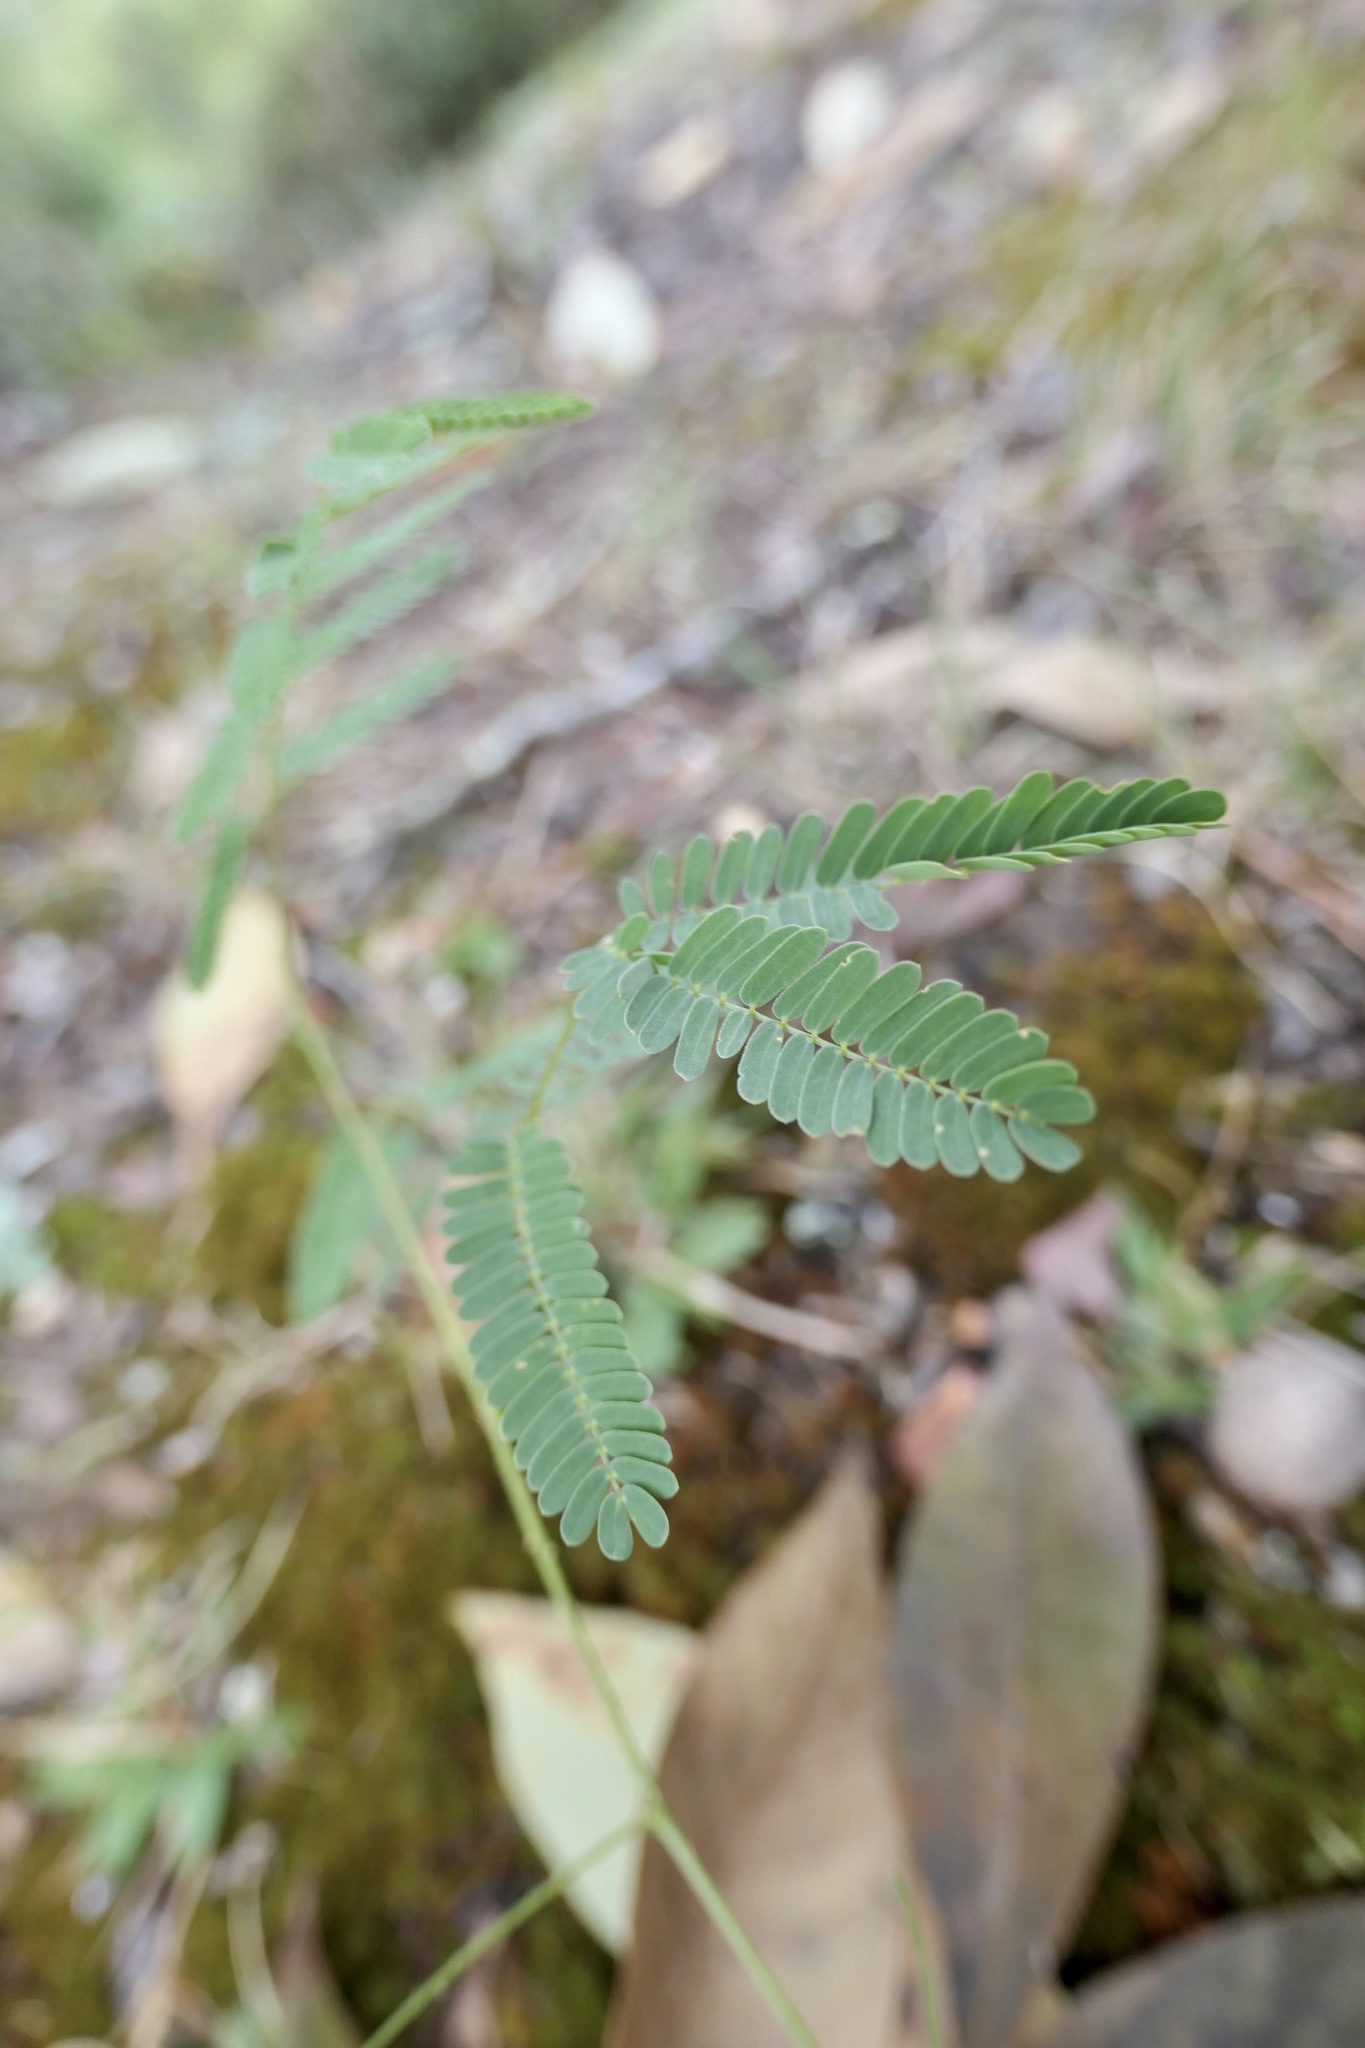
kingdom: Plantae
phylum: Tracheophyta
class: Magnoliopsida
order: Fabales
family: Fabaceae
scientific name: Fabaceae
